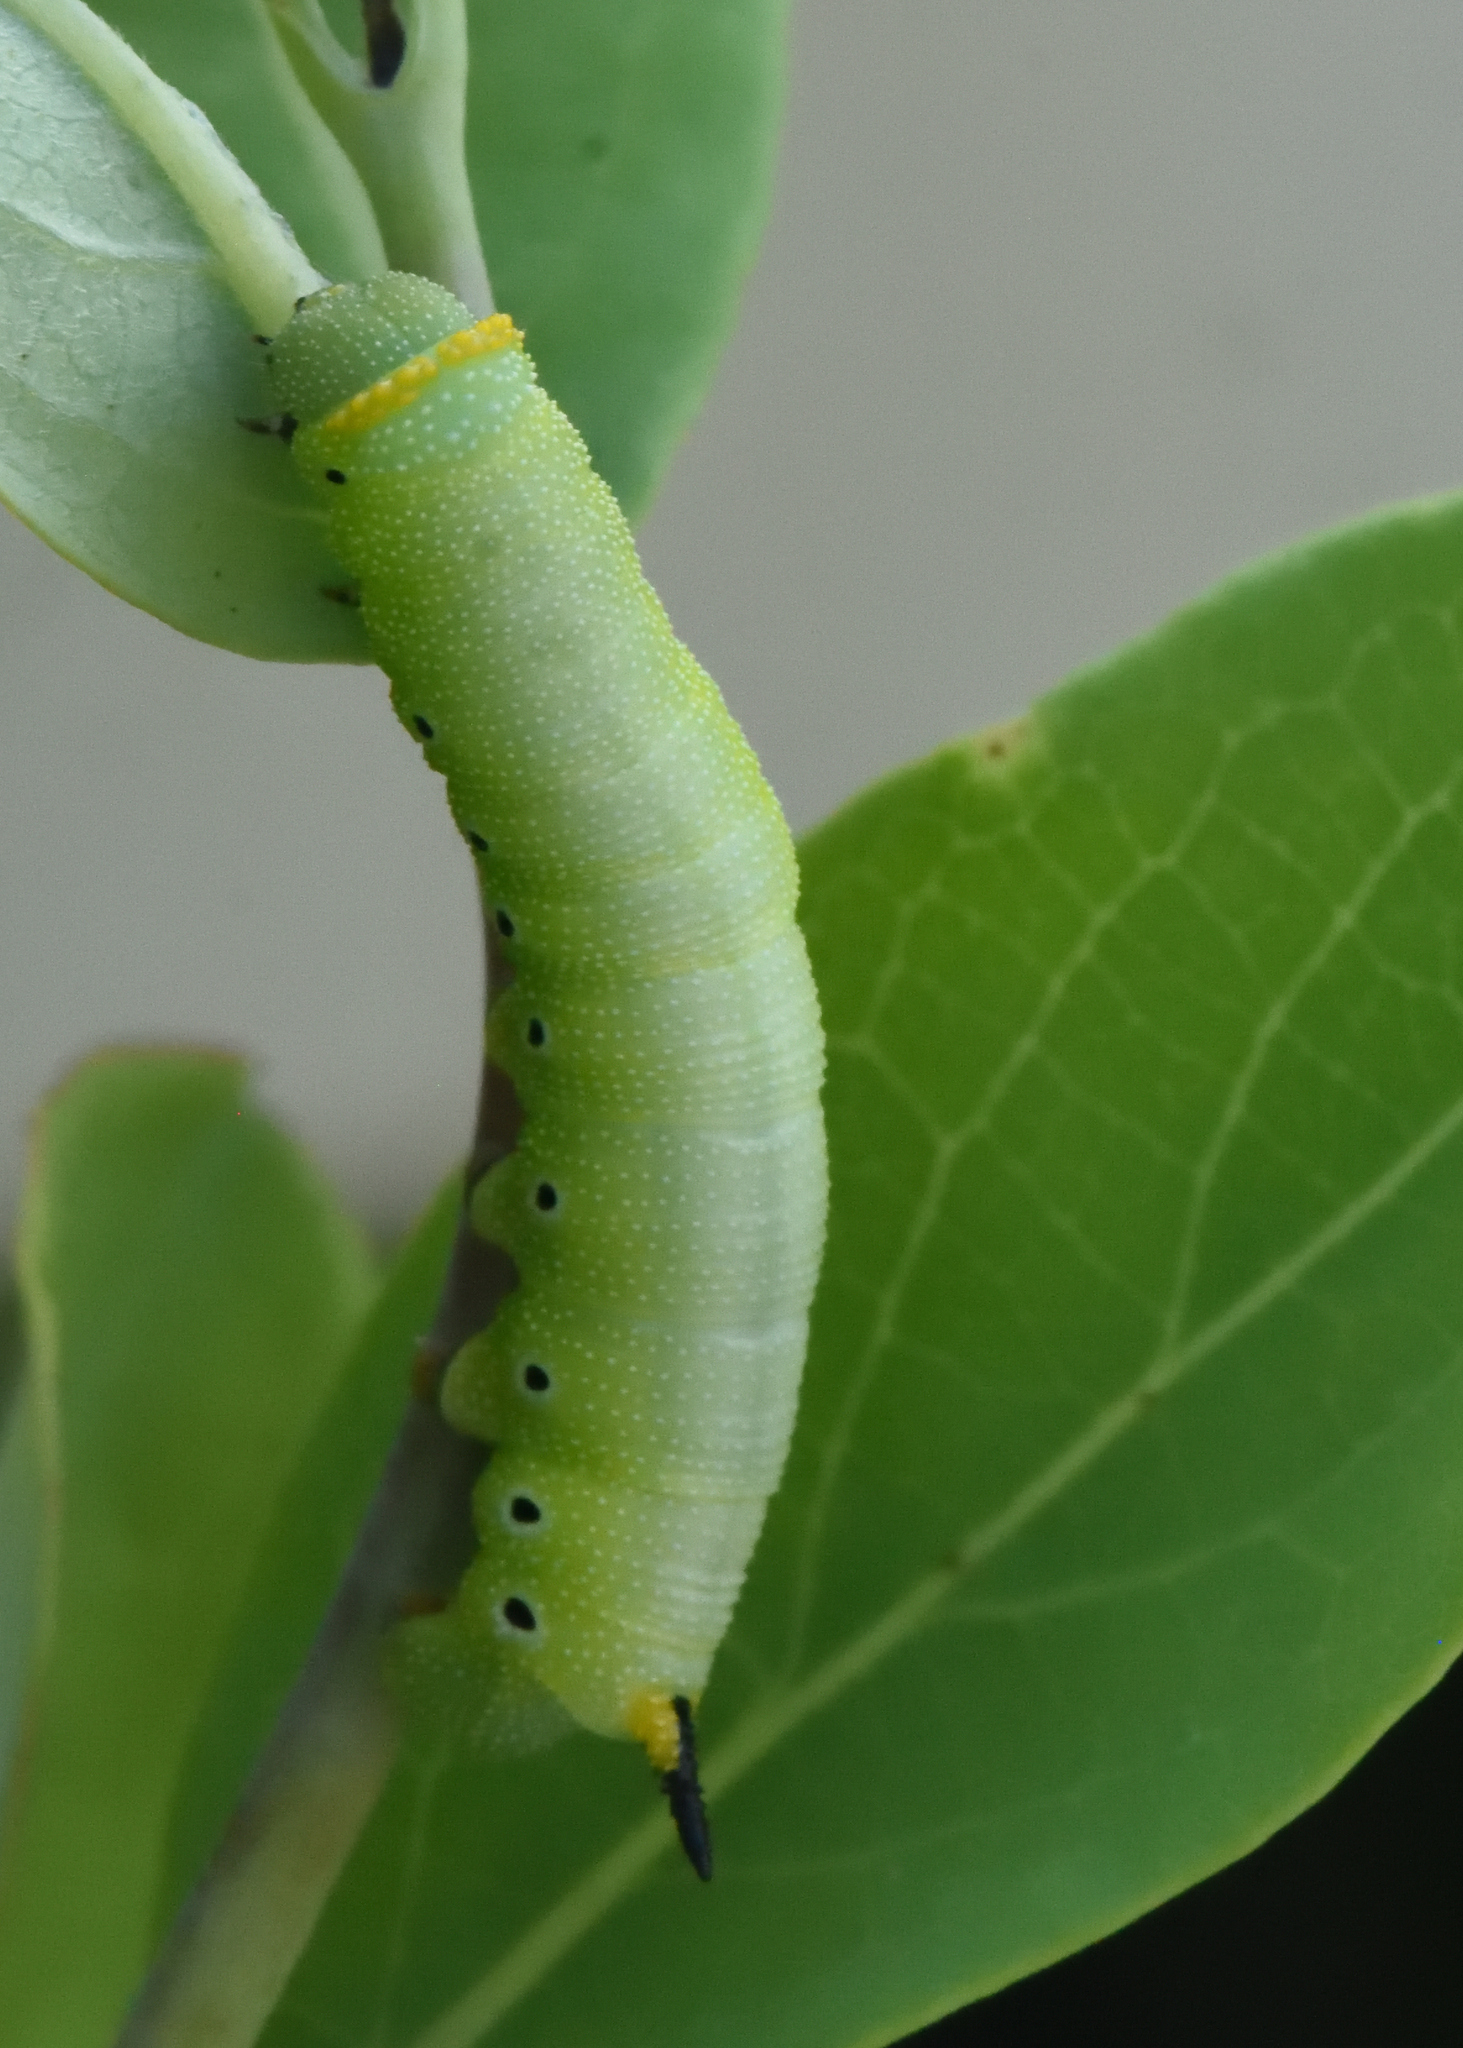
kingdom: Animalia
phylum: Arthropoda
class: Insecta
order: Lepidoptera
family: Sphingidae
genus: Hemaris
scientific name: Hemaris diffinis
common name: Bumblebee moth
